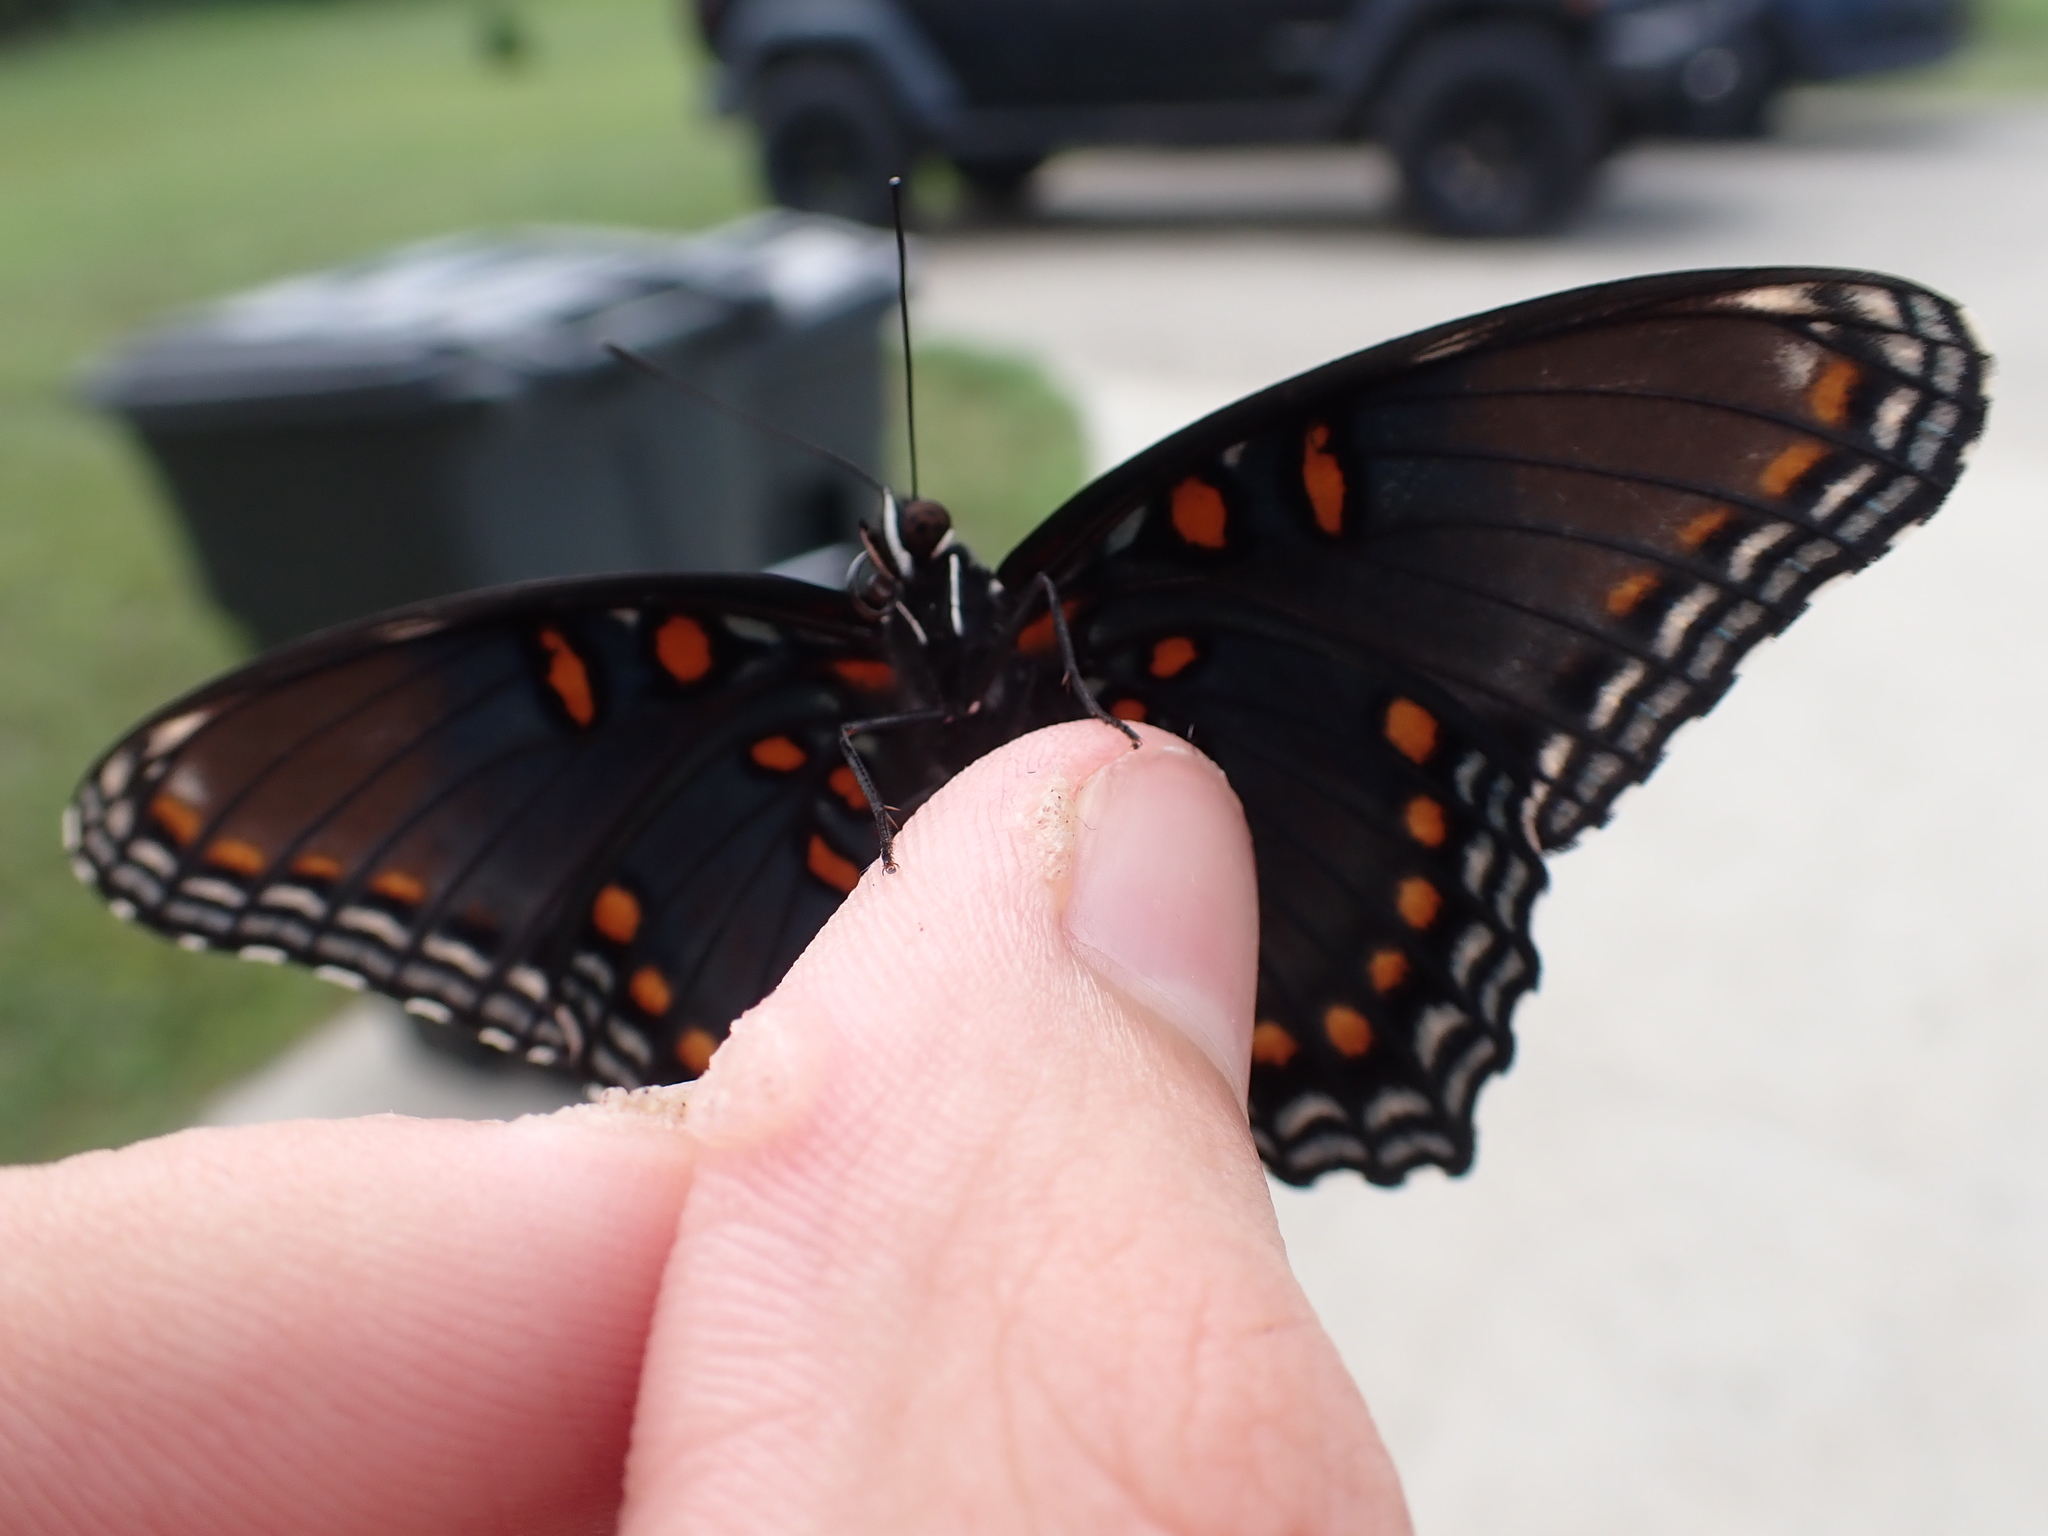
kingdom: Animalia
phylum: Arthropoda
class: Insecta
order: Lepidoptera
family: Nymphalidae
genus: Limenitis
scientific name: Limenitis astyanax
